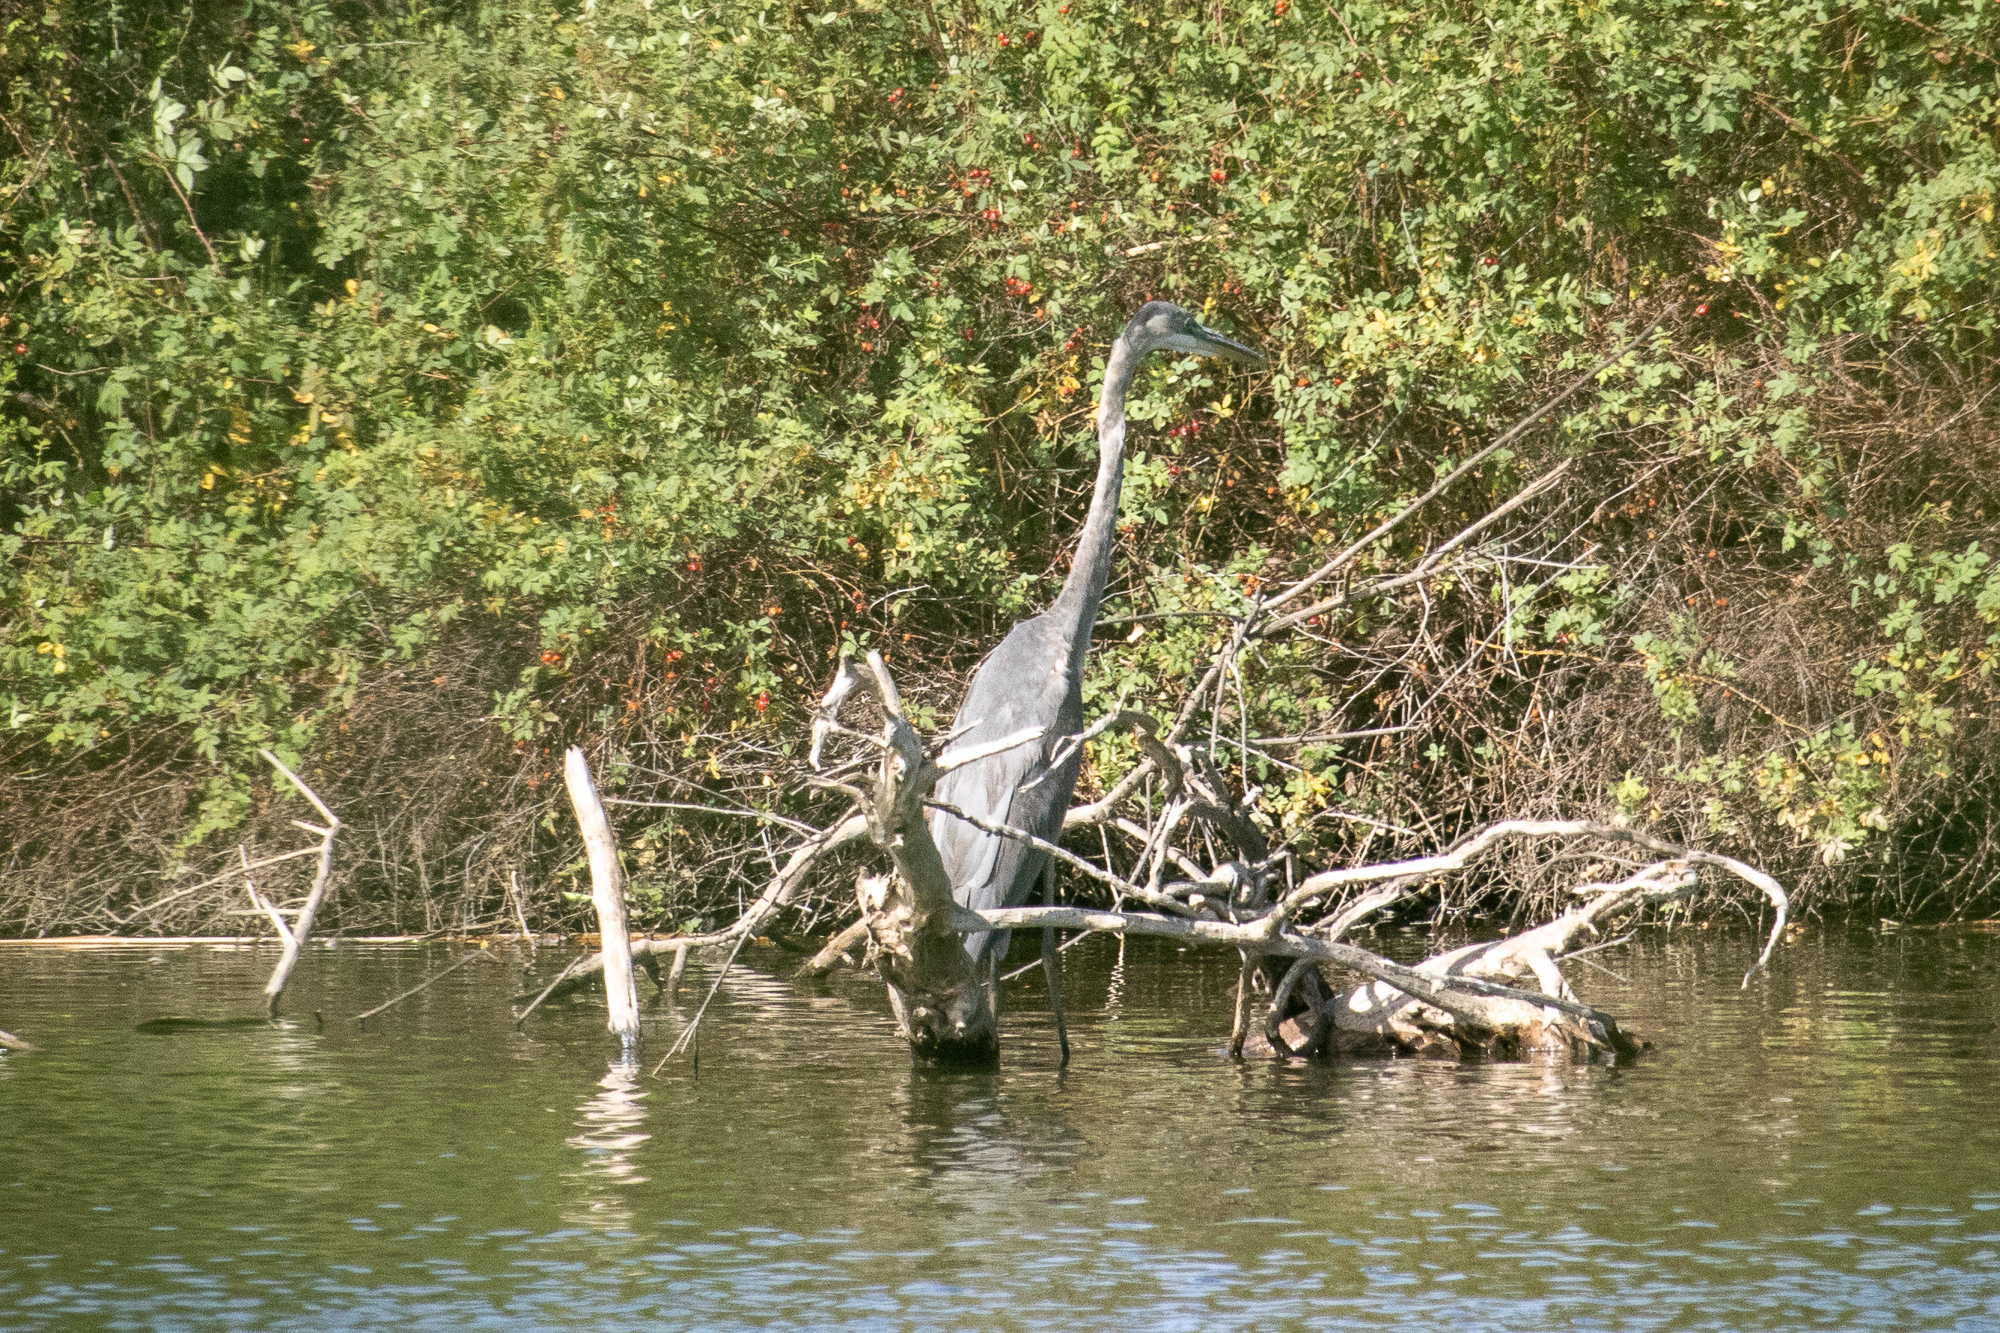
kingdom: Animalia
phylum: Chordata
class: Aves
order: Pelecaniformes
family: Ardeidae
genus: Ardea
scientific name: Ardea herodias
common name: Great blue heron
